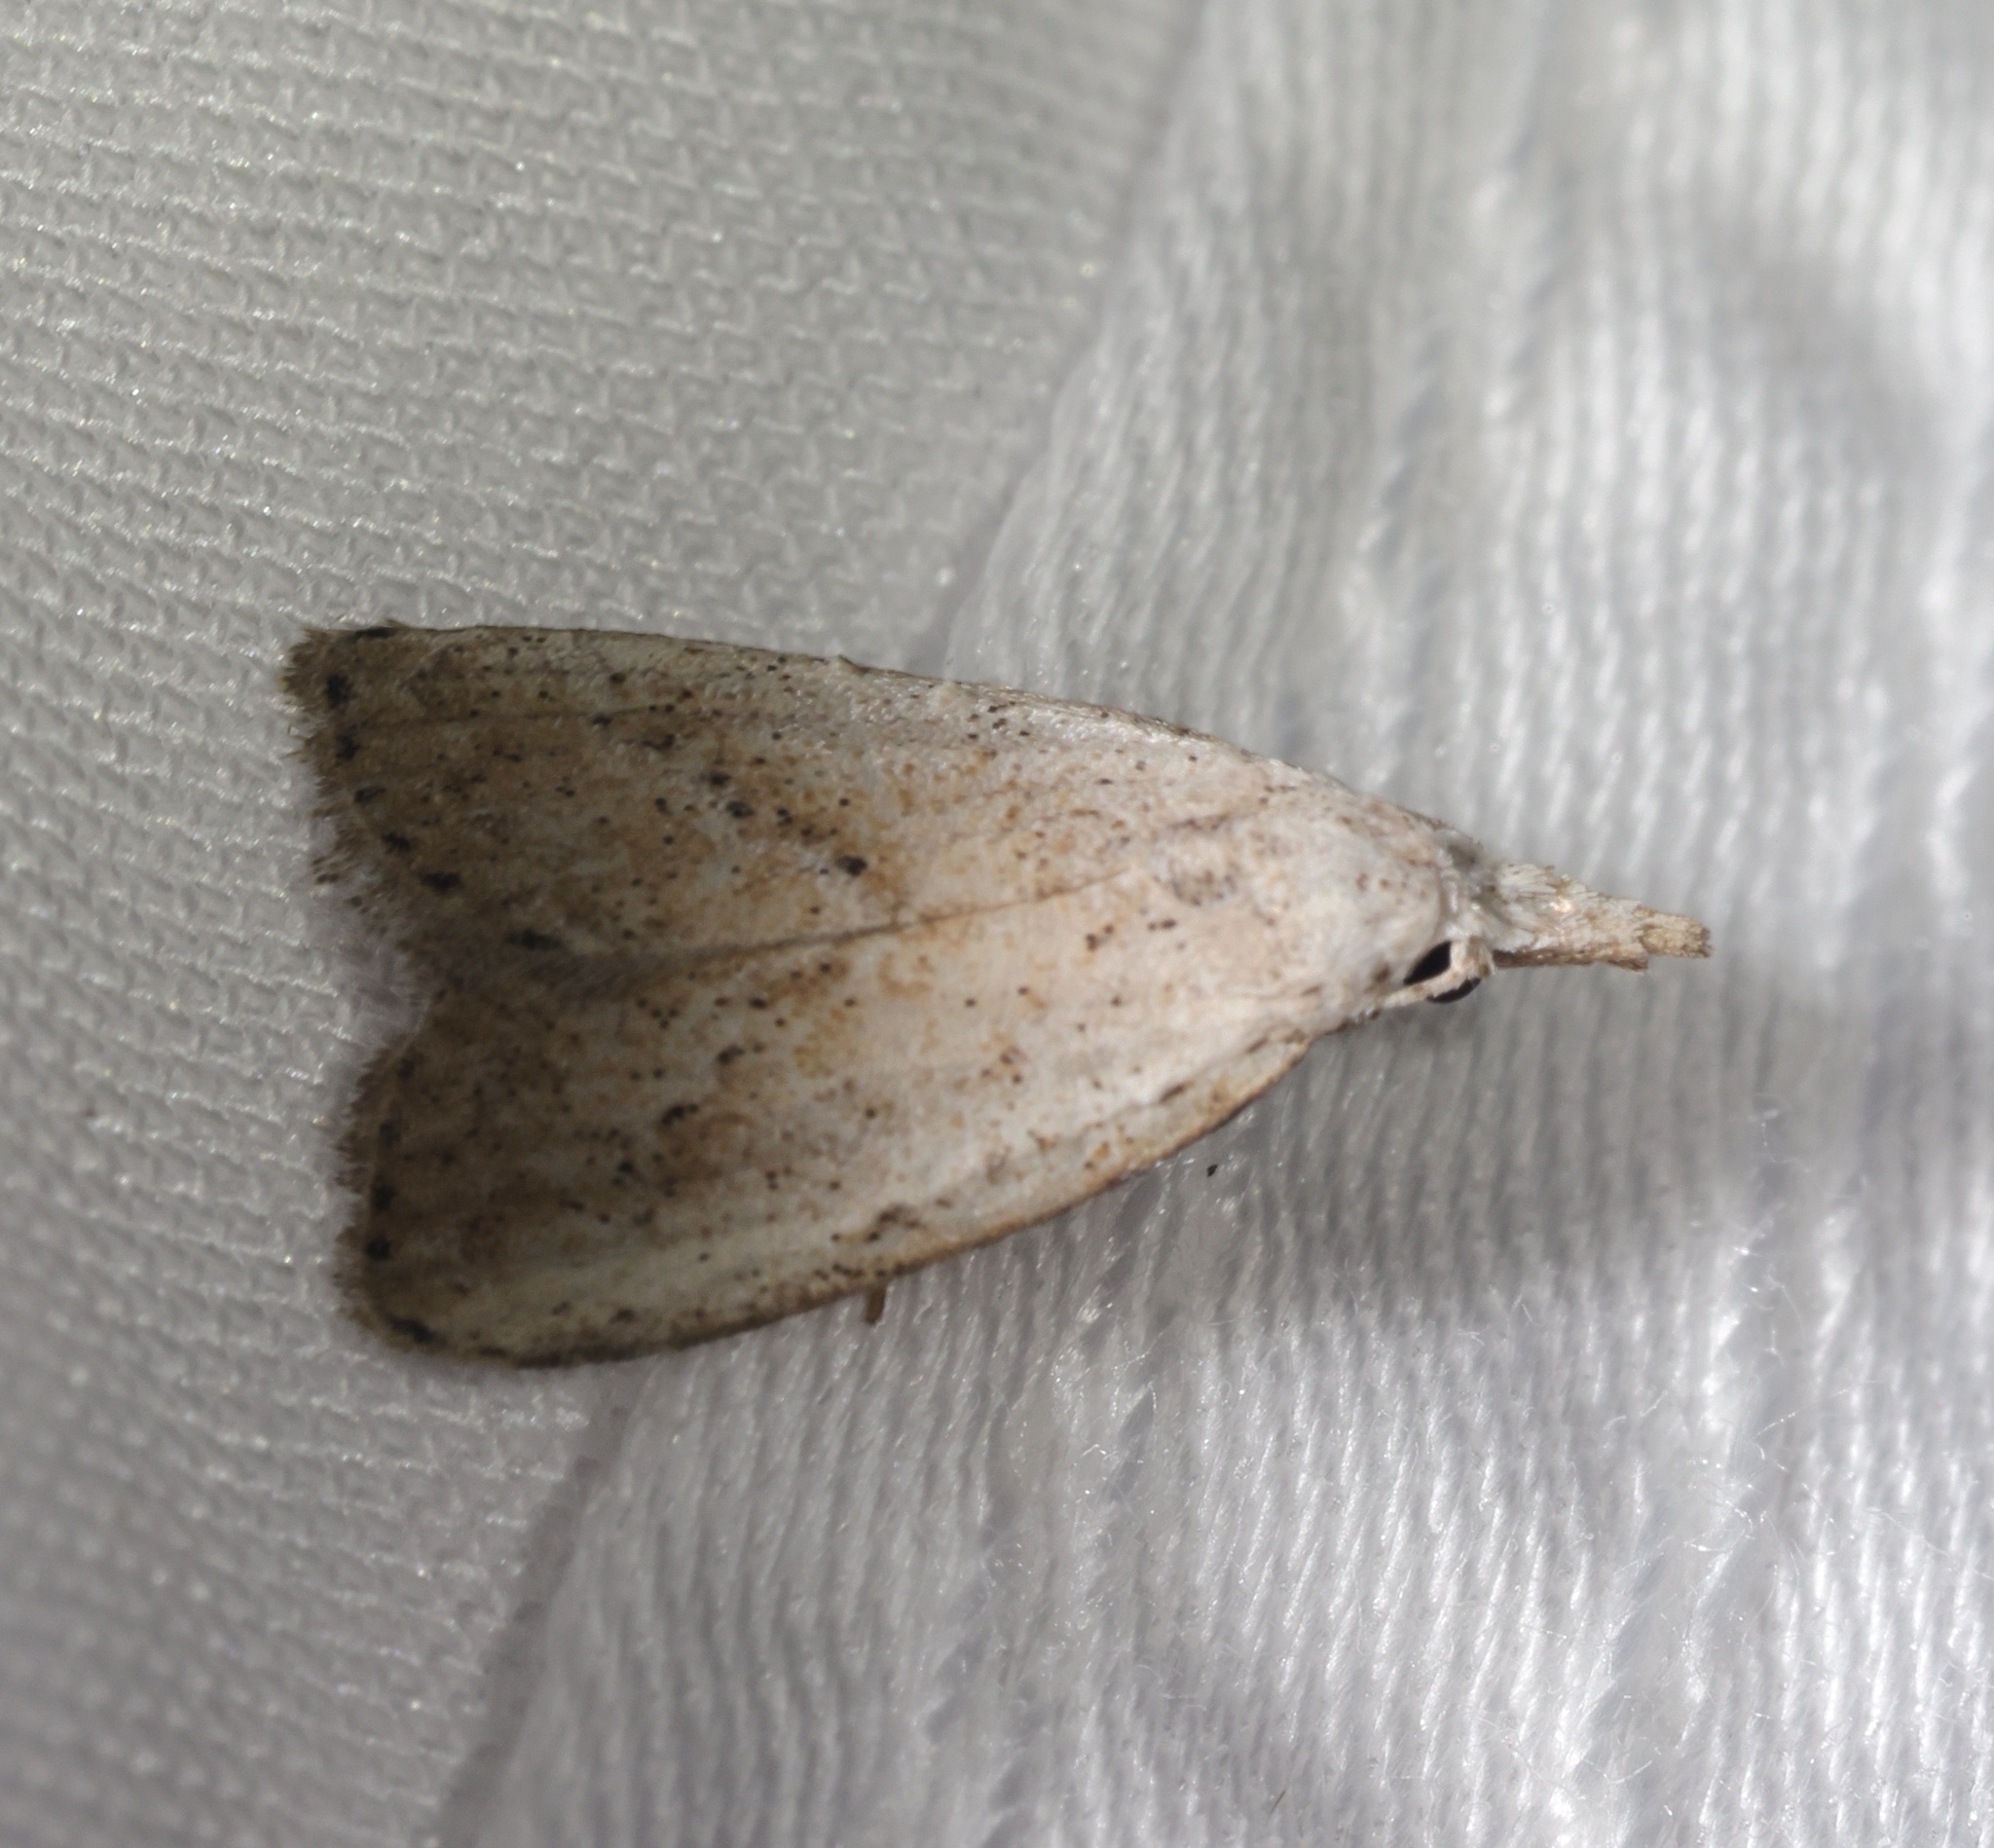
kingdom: Animalia
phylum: Arthropoda
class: Insecta
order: Lepidoptera
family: Nolidae
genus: Meganola
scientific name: Meganola brunellus
